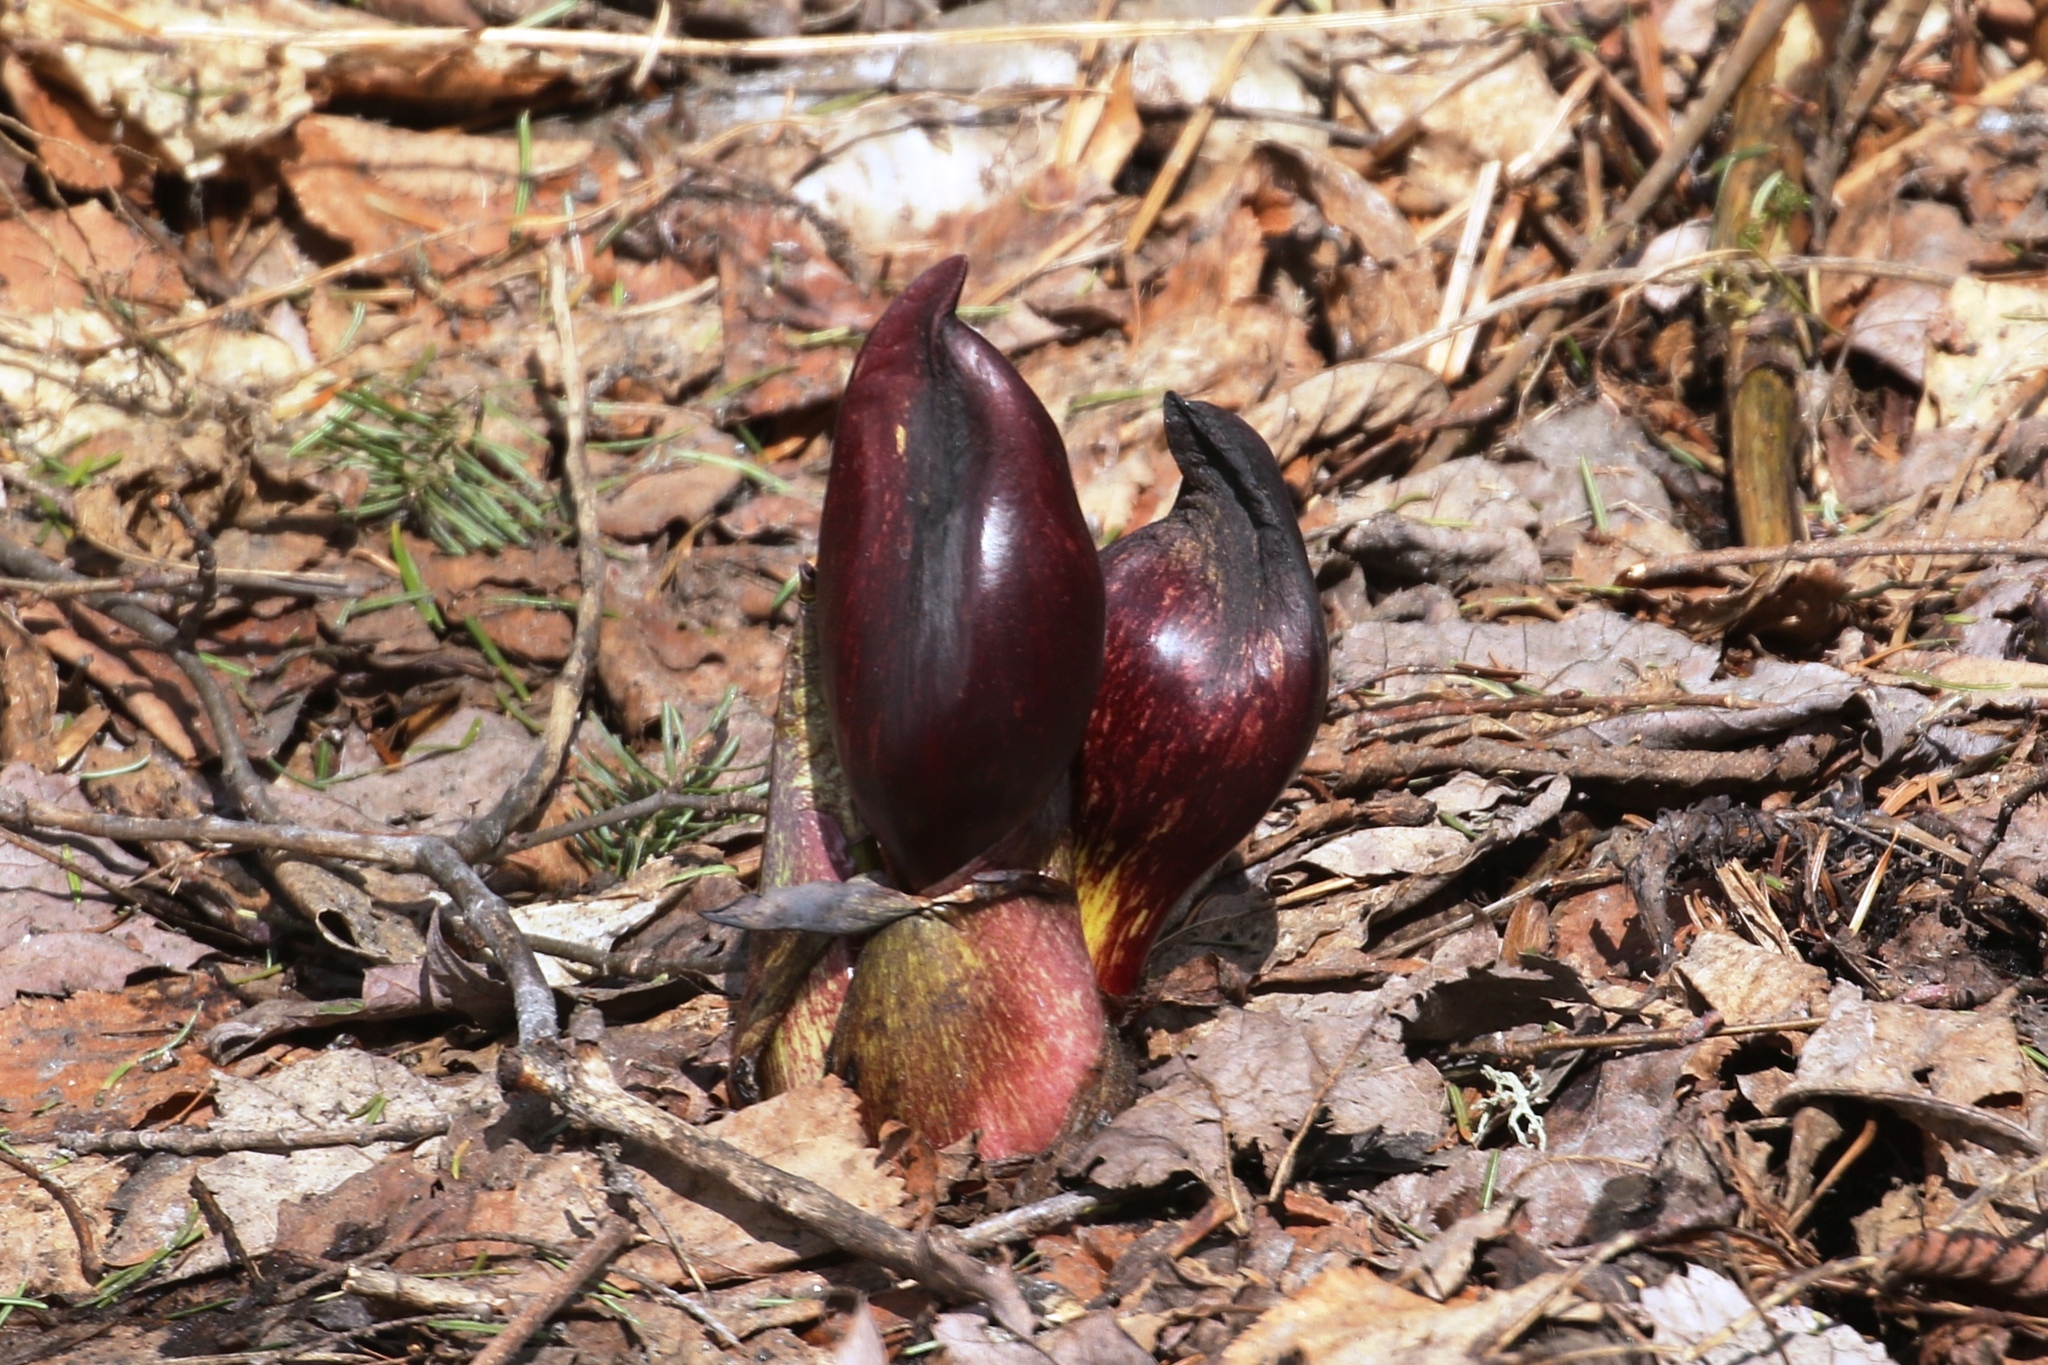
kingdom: Plantae
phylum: Tracheophyta
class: Liliopsida
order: Alismatales
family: Araceae
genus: Symplocarpus
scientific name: Symplocarpus foetidus
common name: Eastern skunk cabbage
